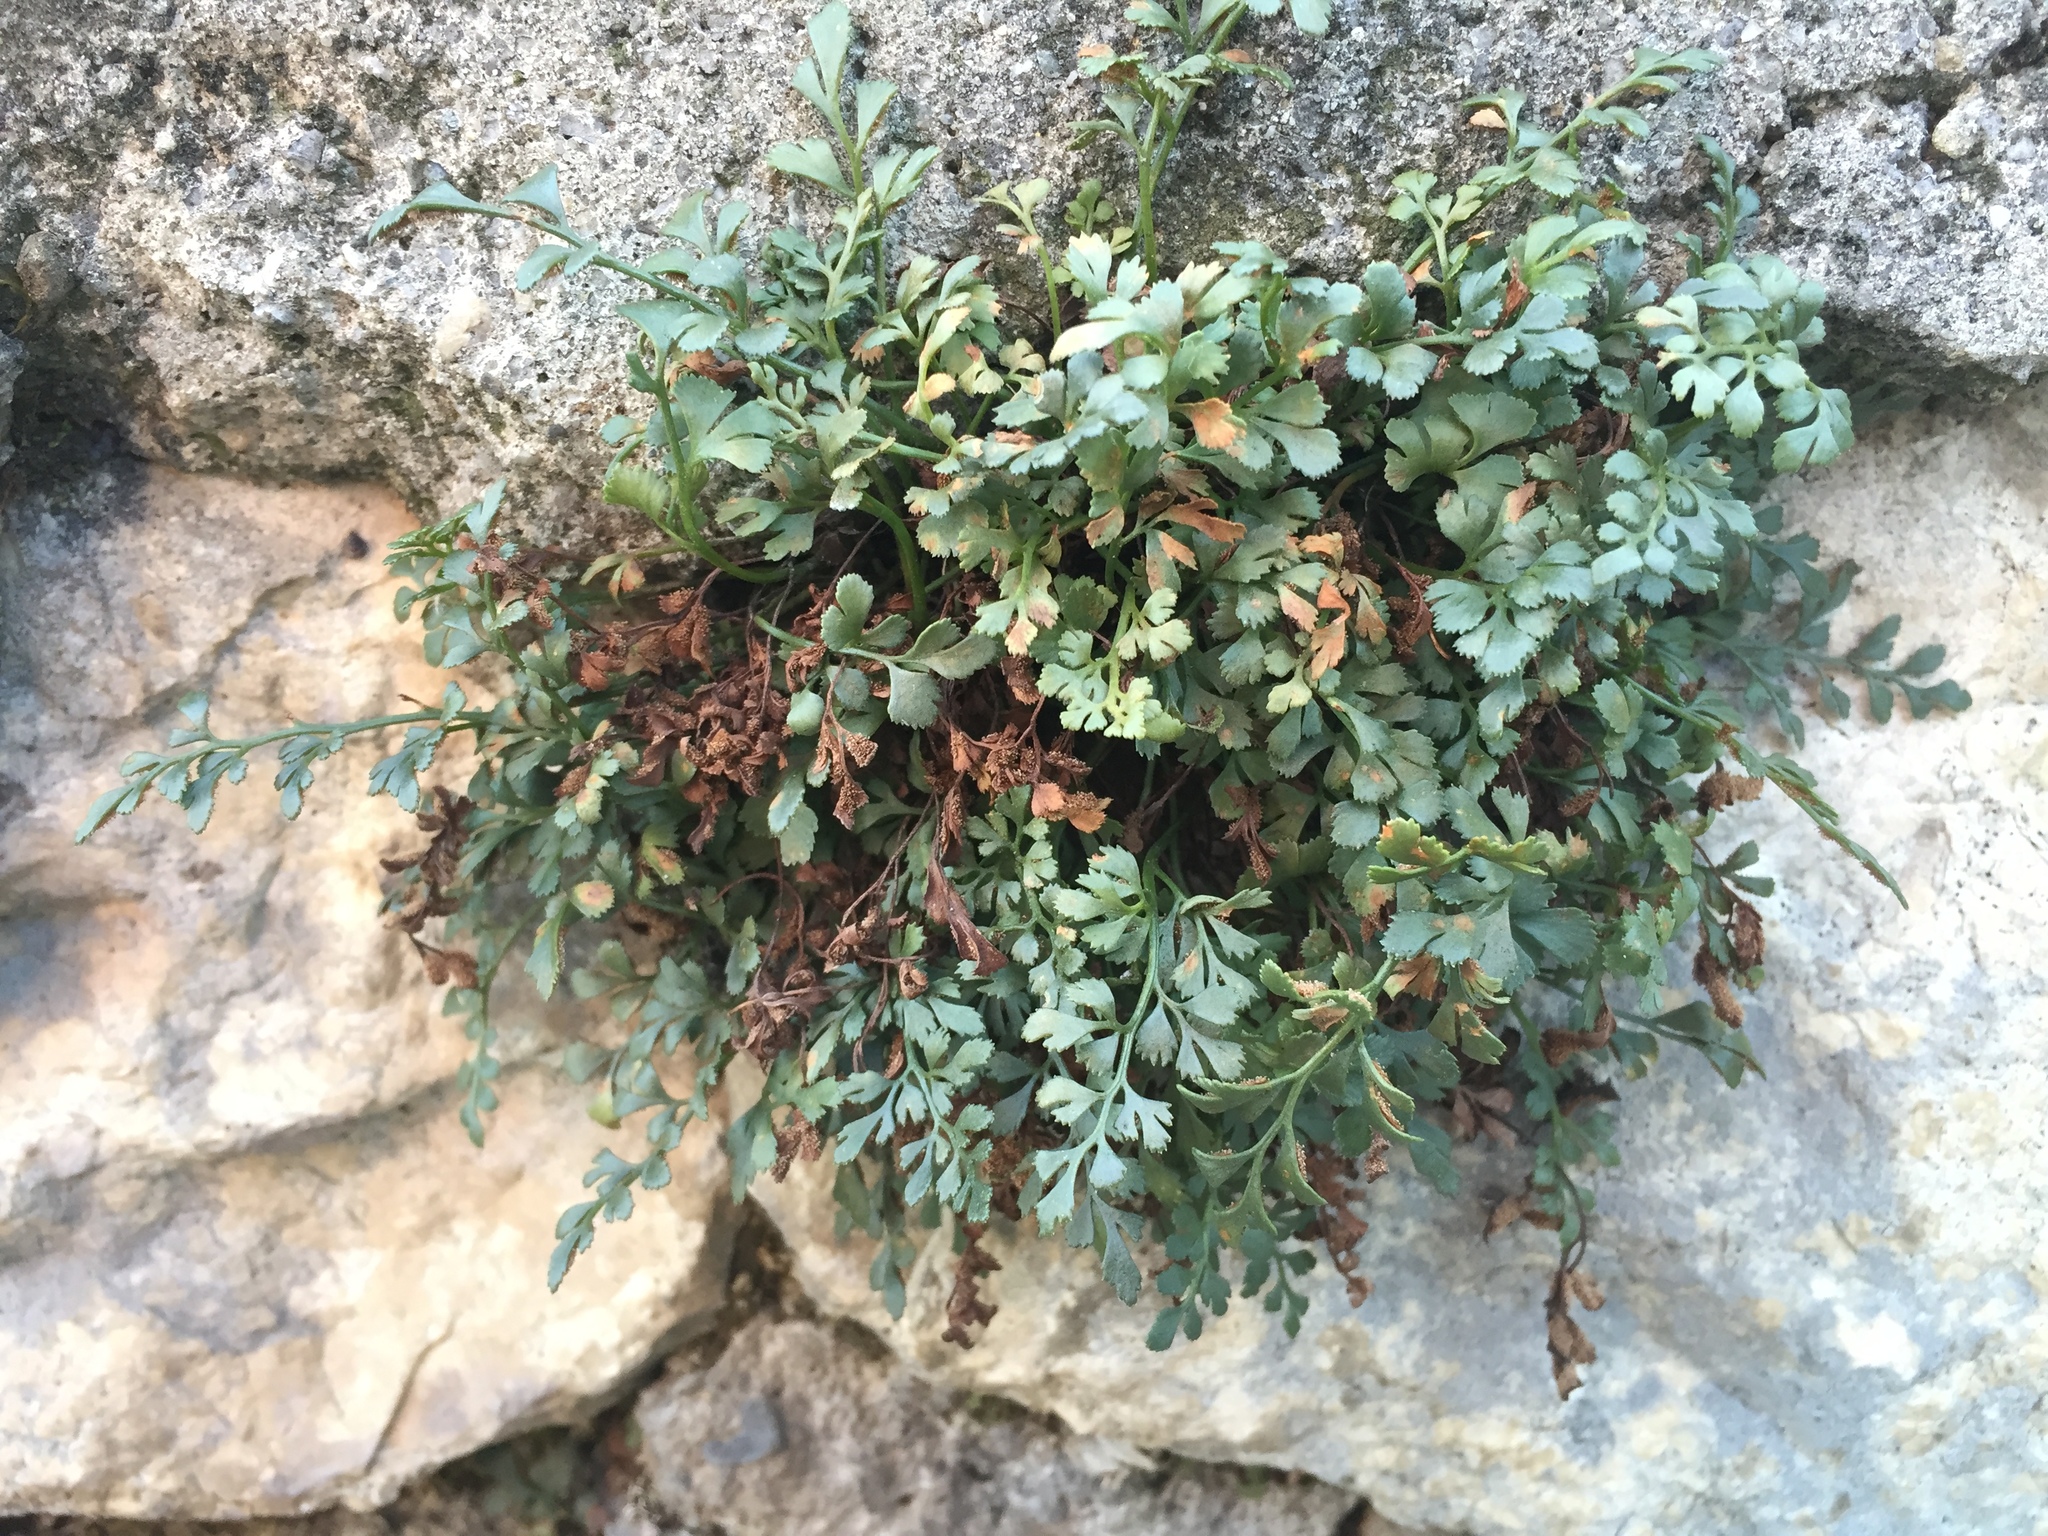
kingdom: Plantae
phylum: Tracheophyta
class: Polypodiopsida
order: Polypodiales
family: Aspleniaceae
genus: Asplenium
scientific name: Asplenium ruta-muraria
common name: Wall-rue
